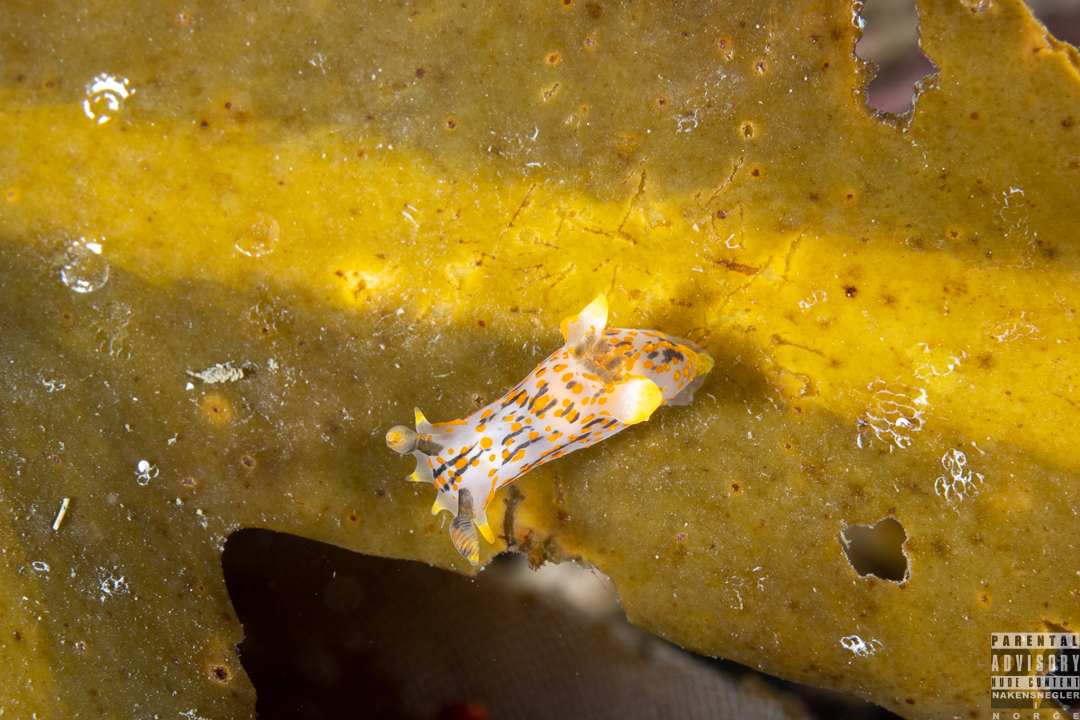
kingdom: Animalia
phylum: Mollusca
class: Gastropoda
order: Nudibranchia
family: Polyceridae
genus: Polycera
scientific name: Polycera quadrilineata
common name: Four-striped polycera
